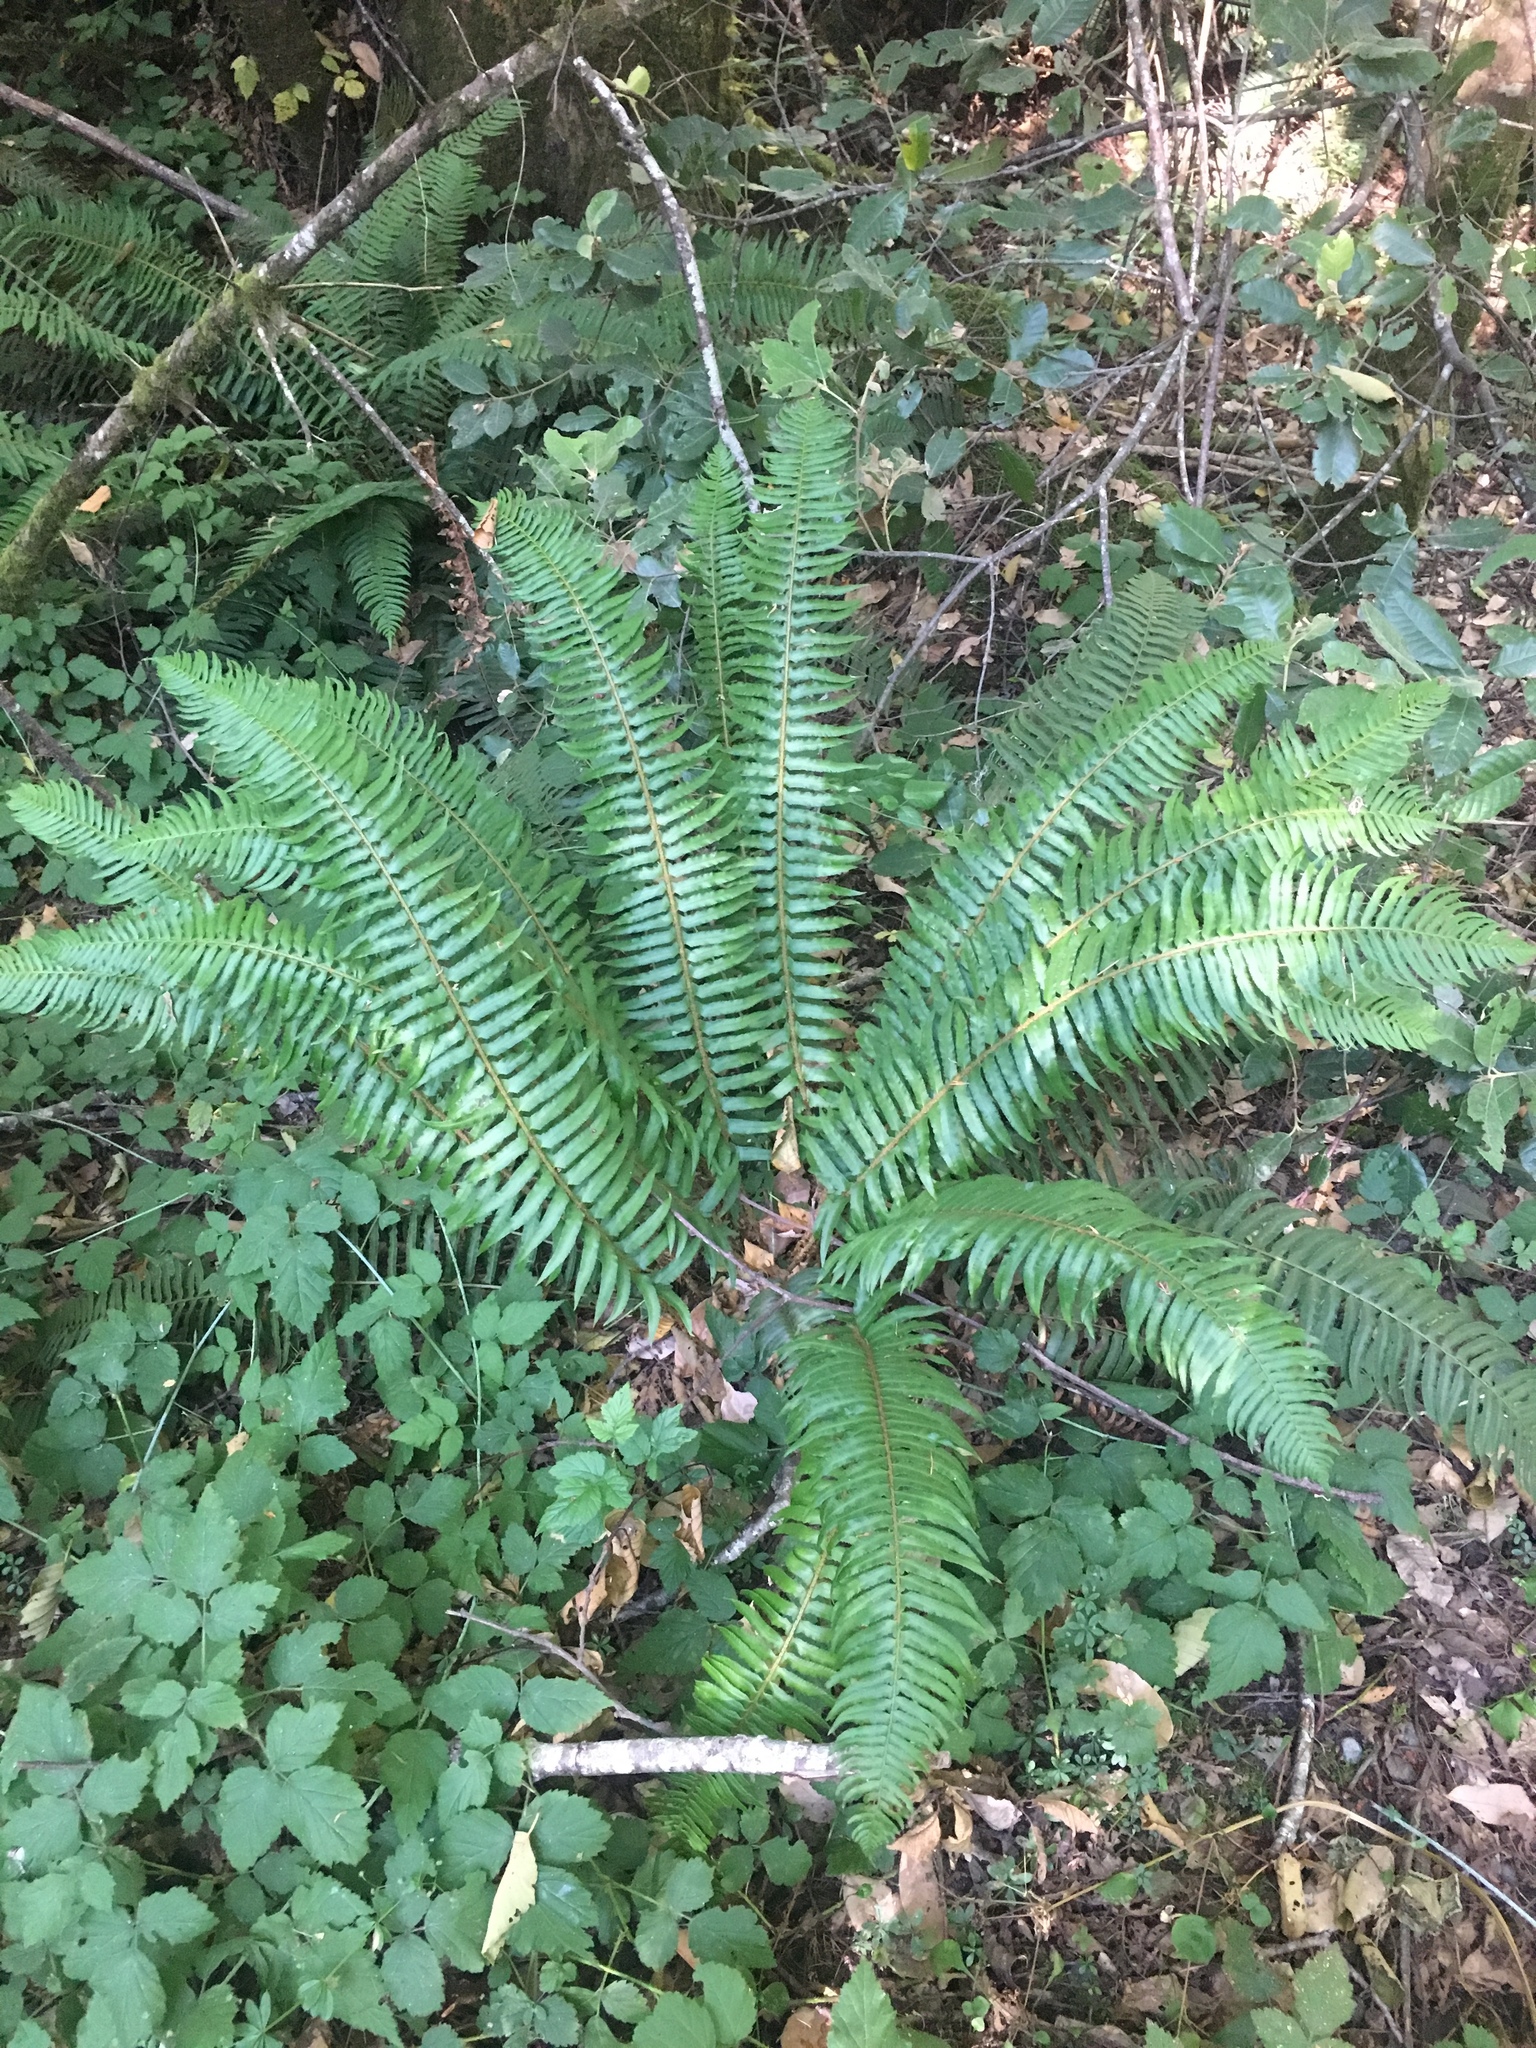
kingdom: Plantae
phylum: Tracheophyta
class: Polypodiopsida
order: Polypodiales
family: Dryopteridaceae
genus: Polystichum
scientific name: Polystichum munitum
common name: Western sword-fern
